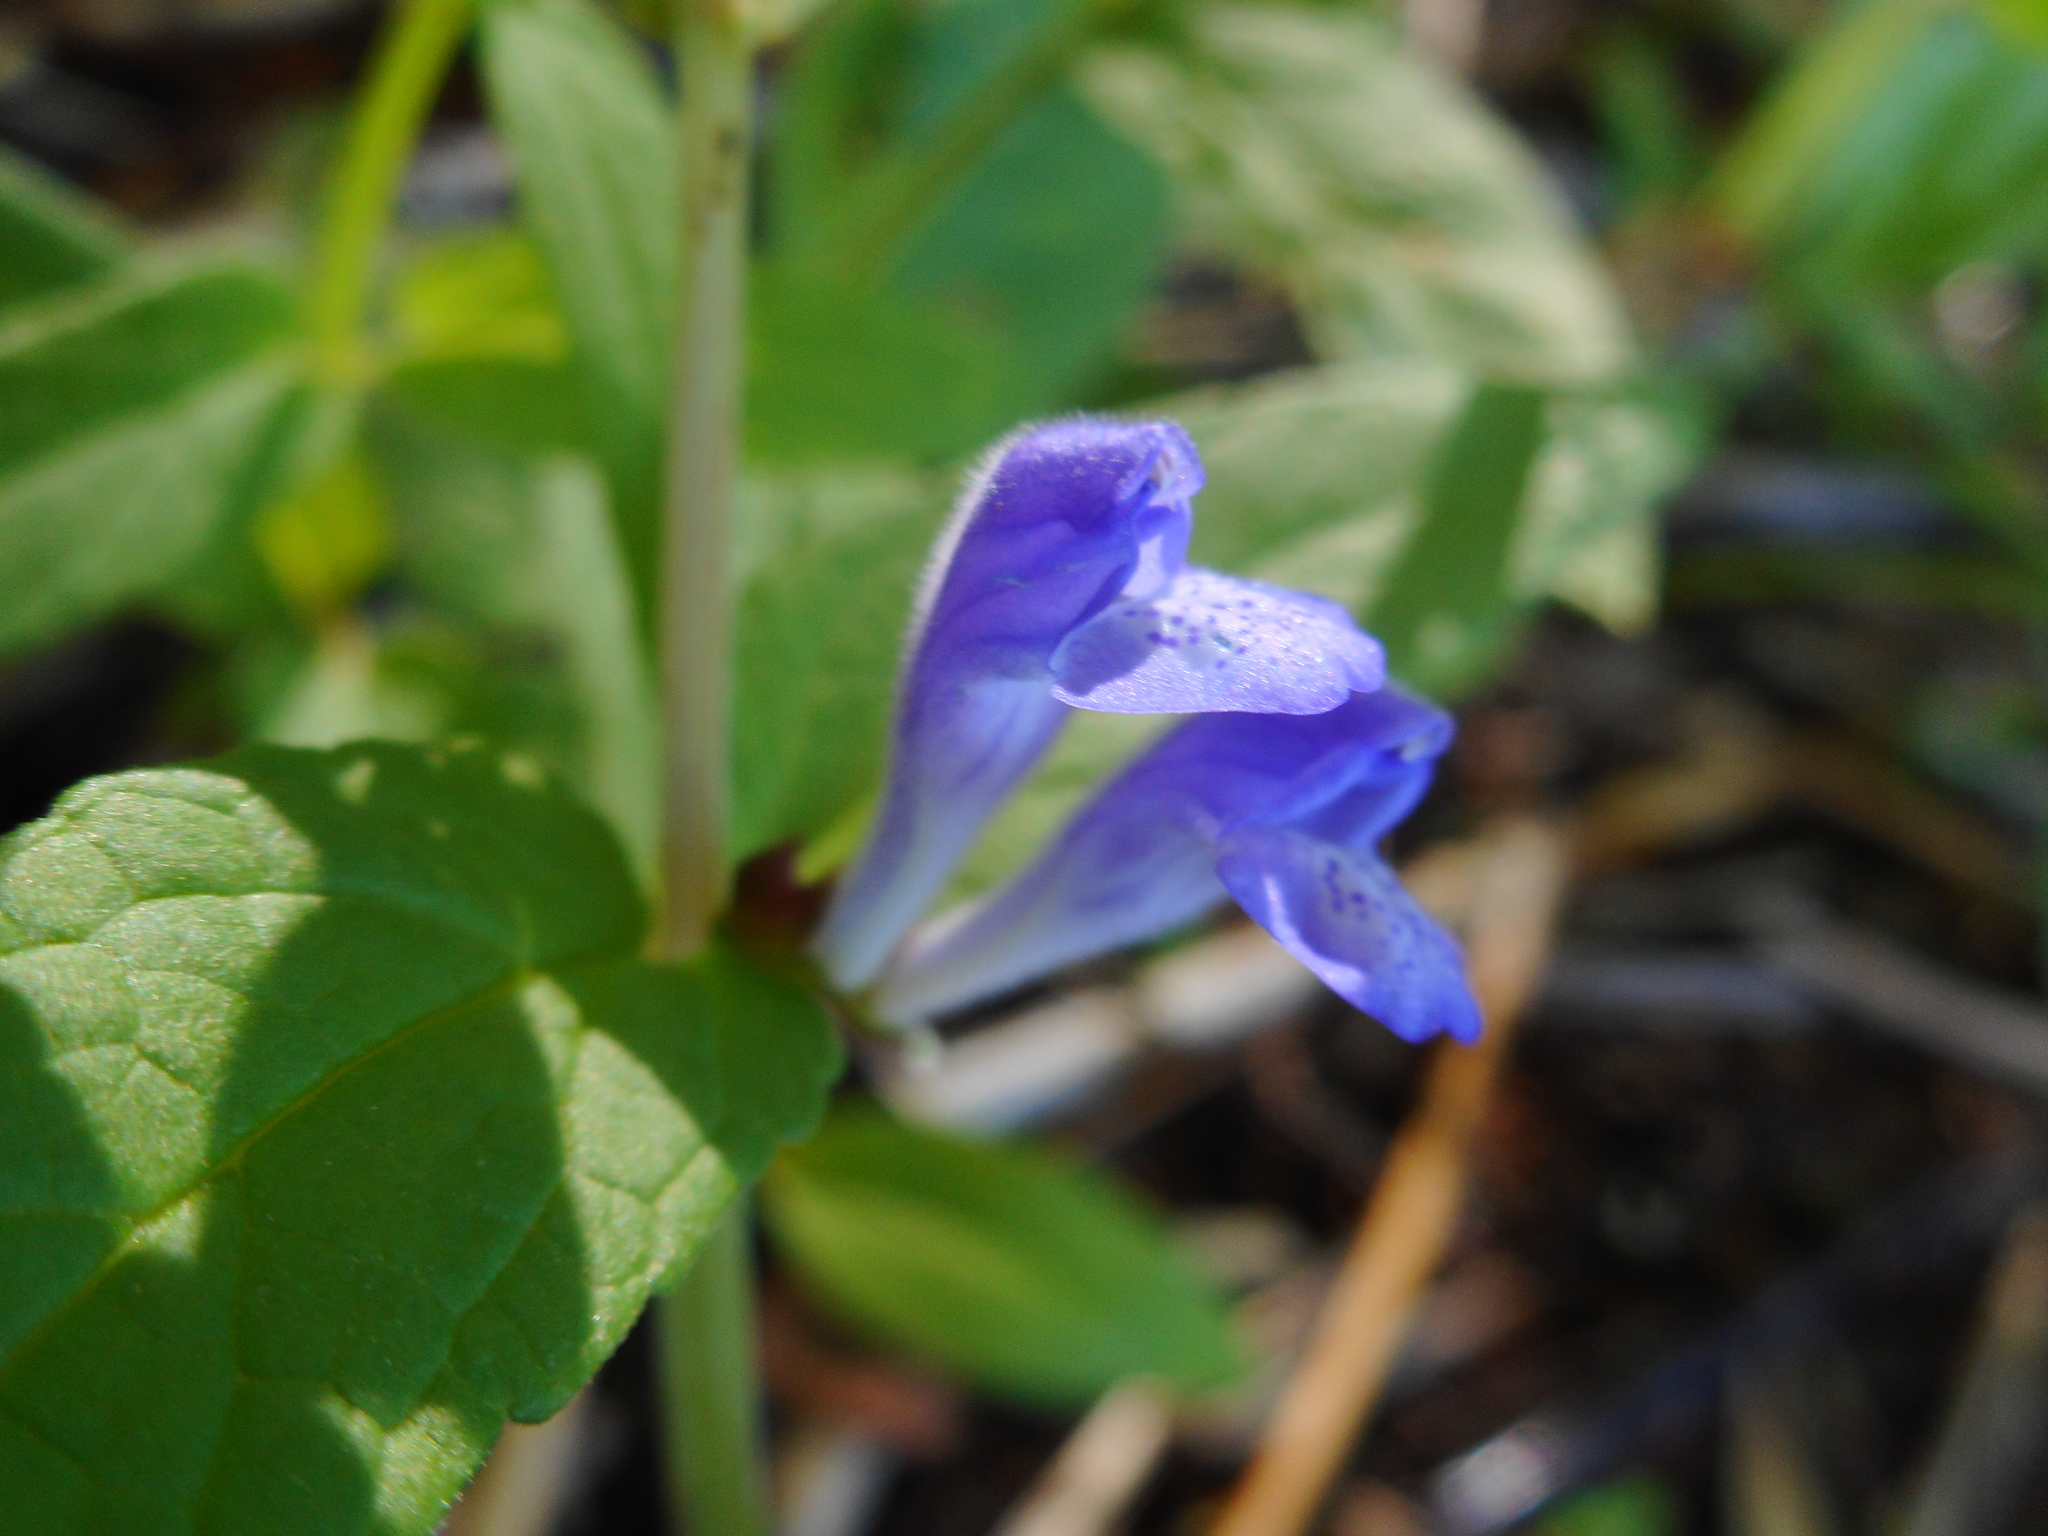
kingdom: Plantae
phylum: Tracheophyta
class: Magnoliopsida
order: Lamiales
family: Lamiaceae
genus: Scutellaria
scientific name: Scutellaria galericulata
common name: Skullcap
